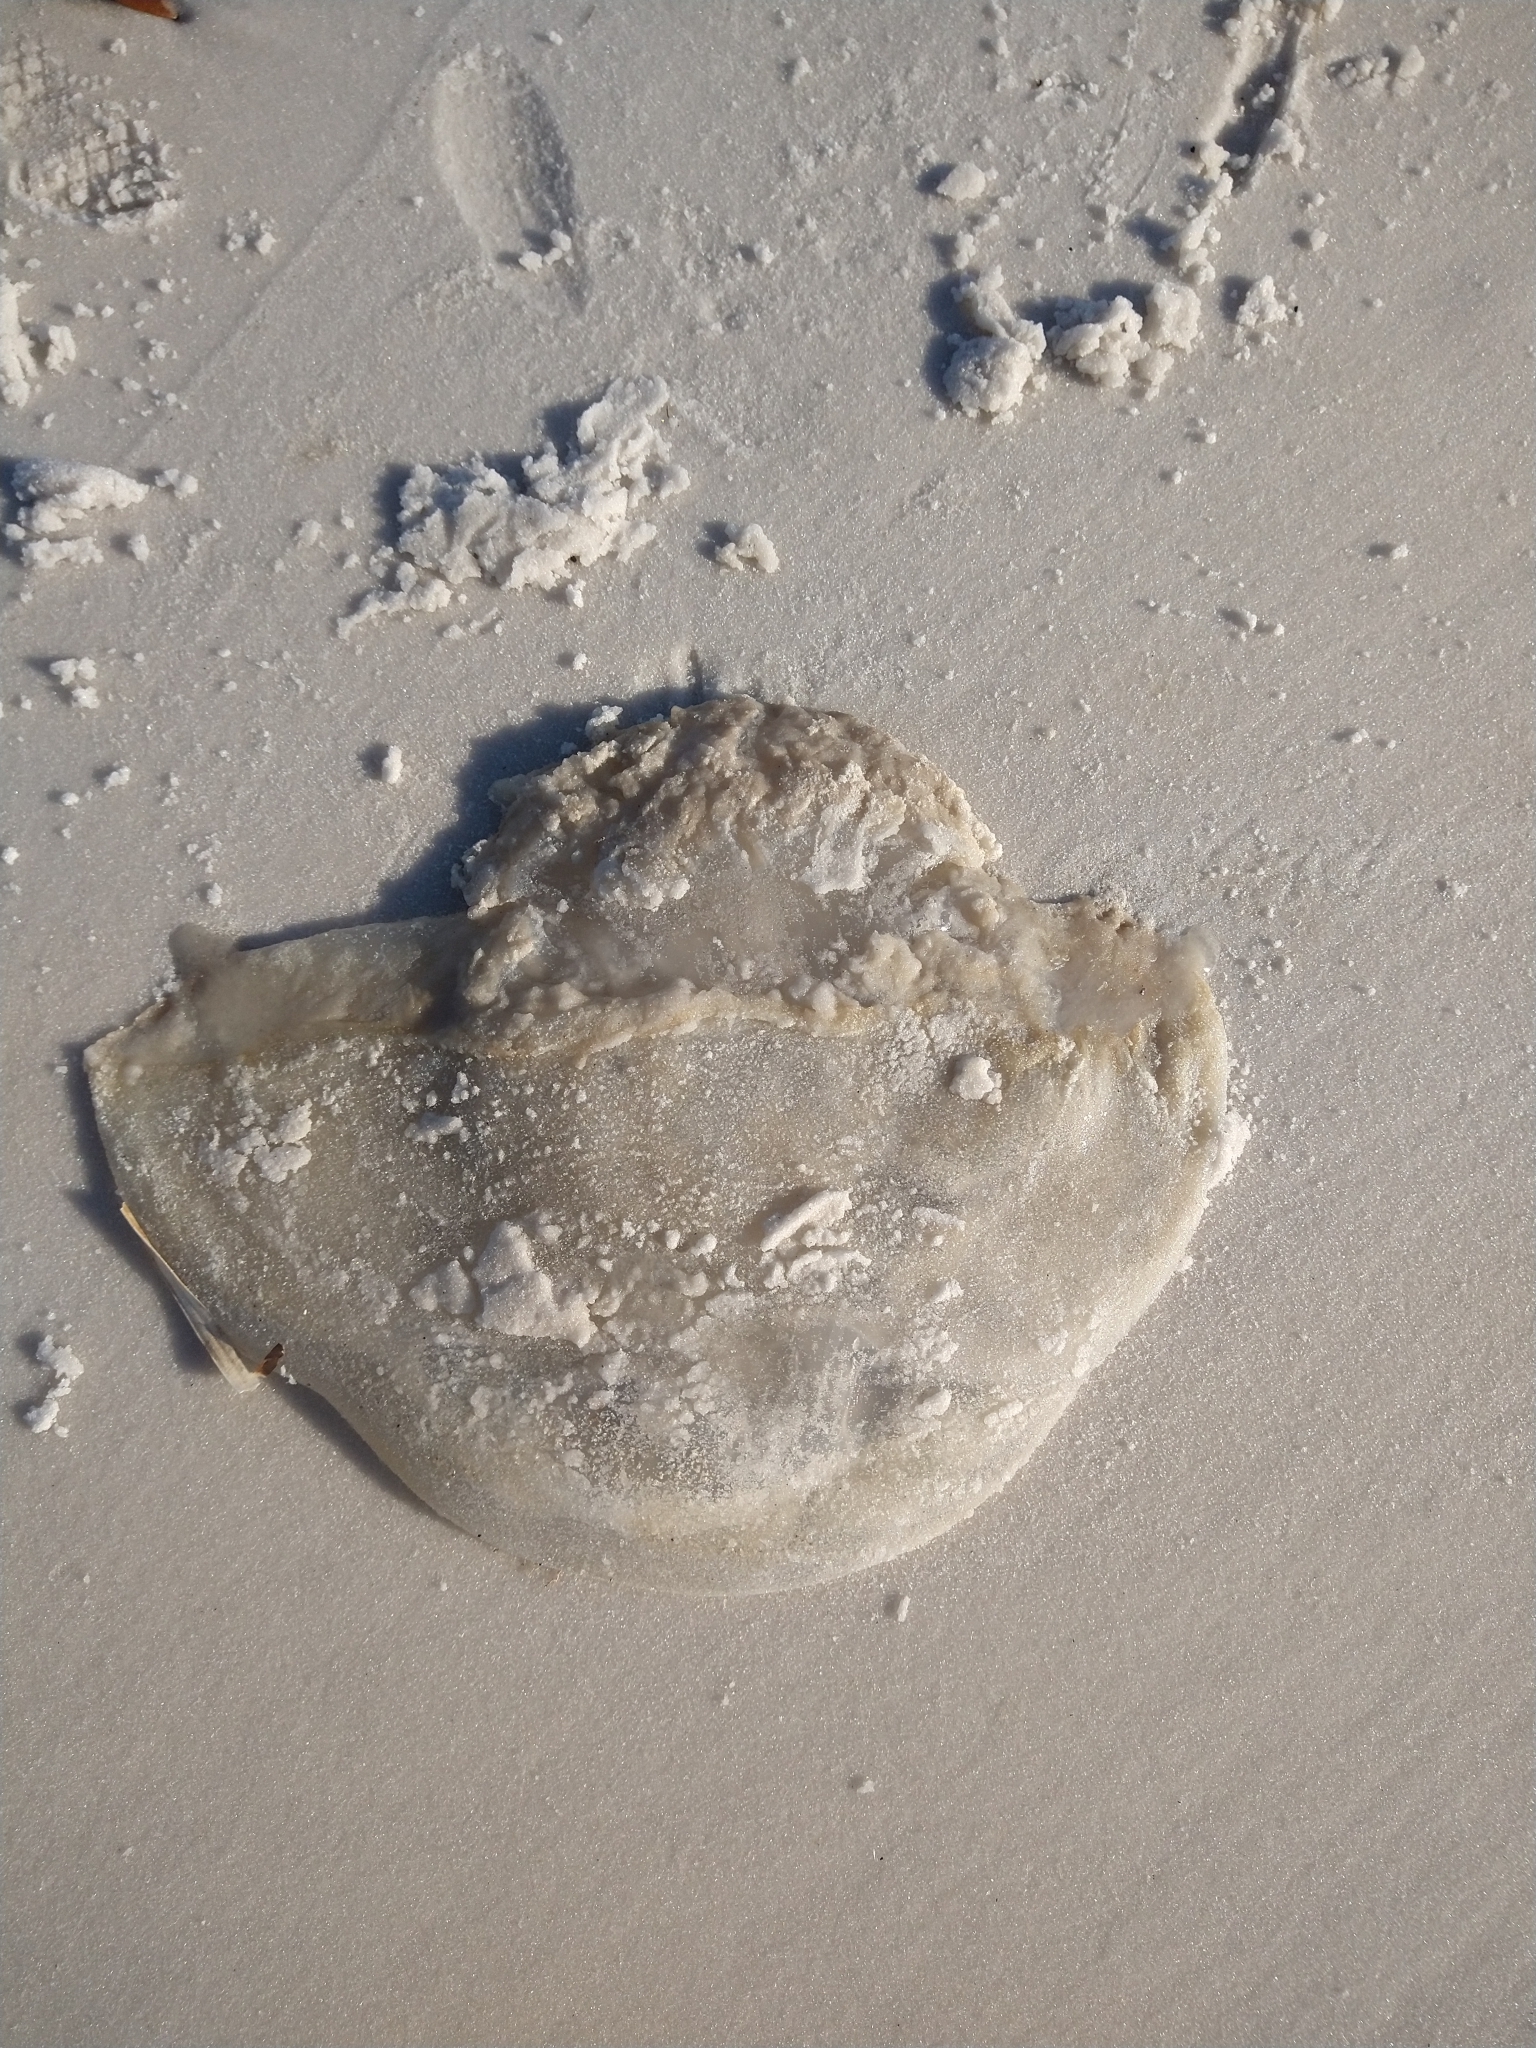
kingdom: Animalia
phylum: Cnidaria
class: Scyphozoa
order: Rhizostomeae
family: Stomolophidae
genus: Stomolophus
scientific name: Stomolophus meleagris
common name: Cabbagehead
